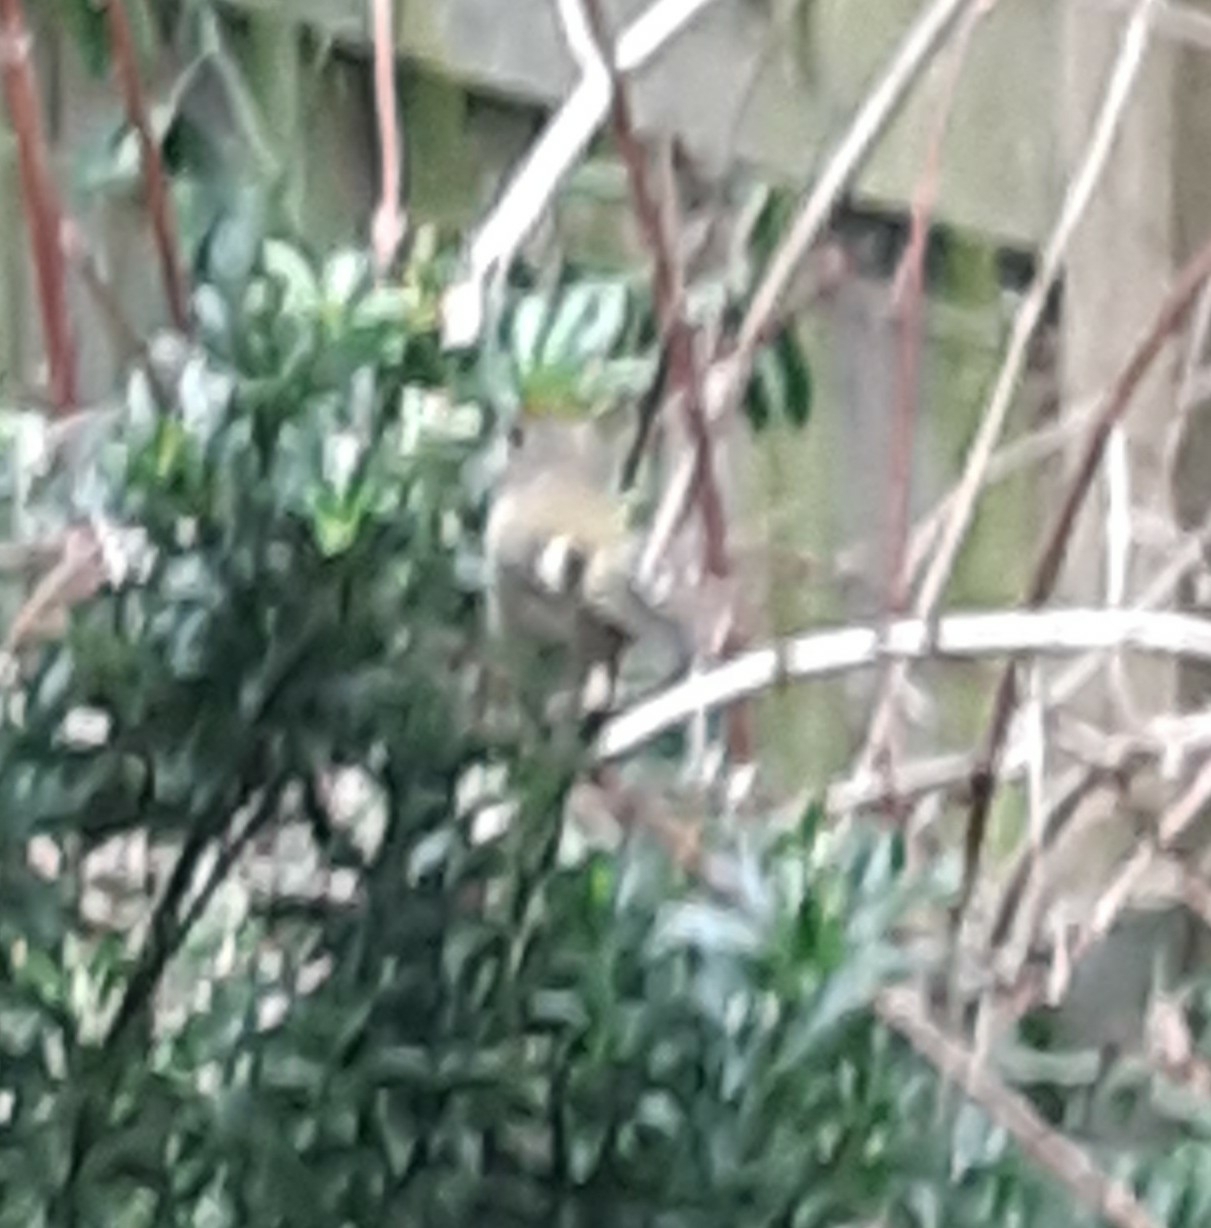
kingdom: Animalia
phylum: Chordata
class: Aves
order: Passeriformes
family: Regulidae
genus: Regulus
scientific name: Regulus regulus
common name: Goldcrest
